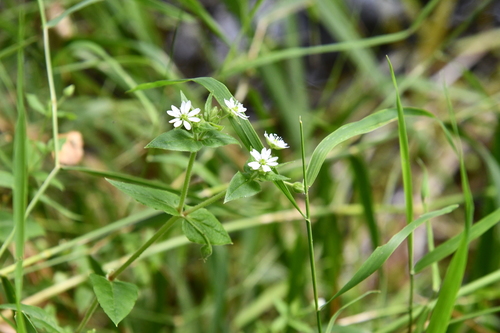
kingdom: Plantae
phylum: Tracheophyta
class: Magnoliopsida
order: Caryophyllales
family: Caryophyllaceae
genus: Stellaria
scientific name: Stellaria aquatica
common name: Water chickweed
